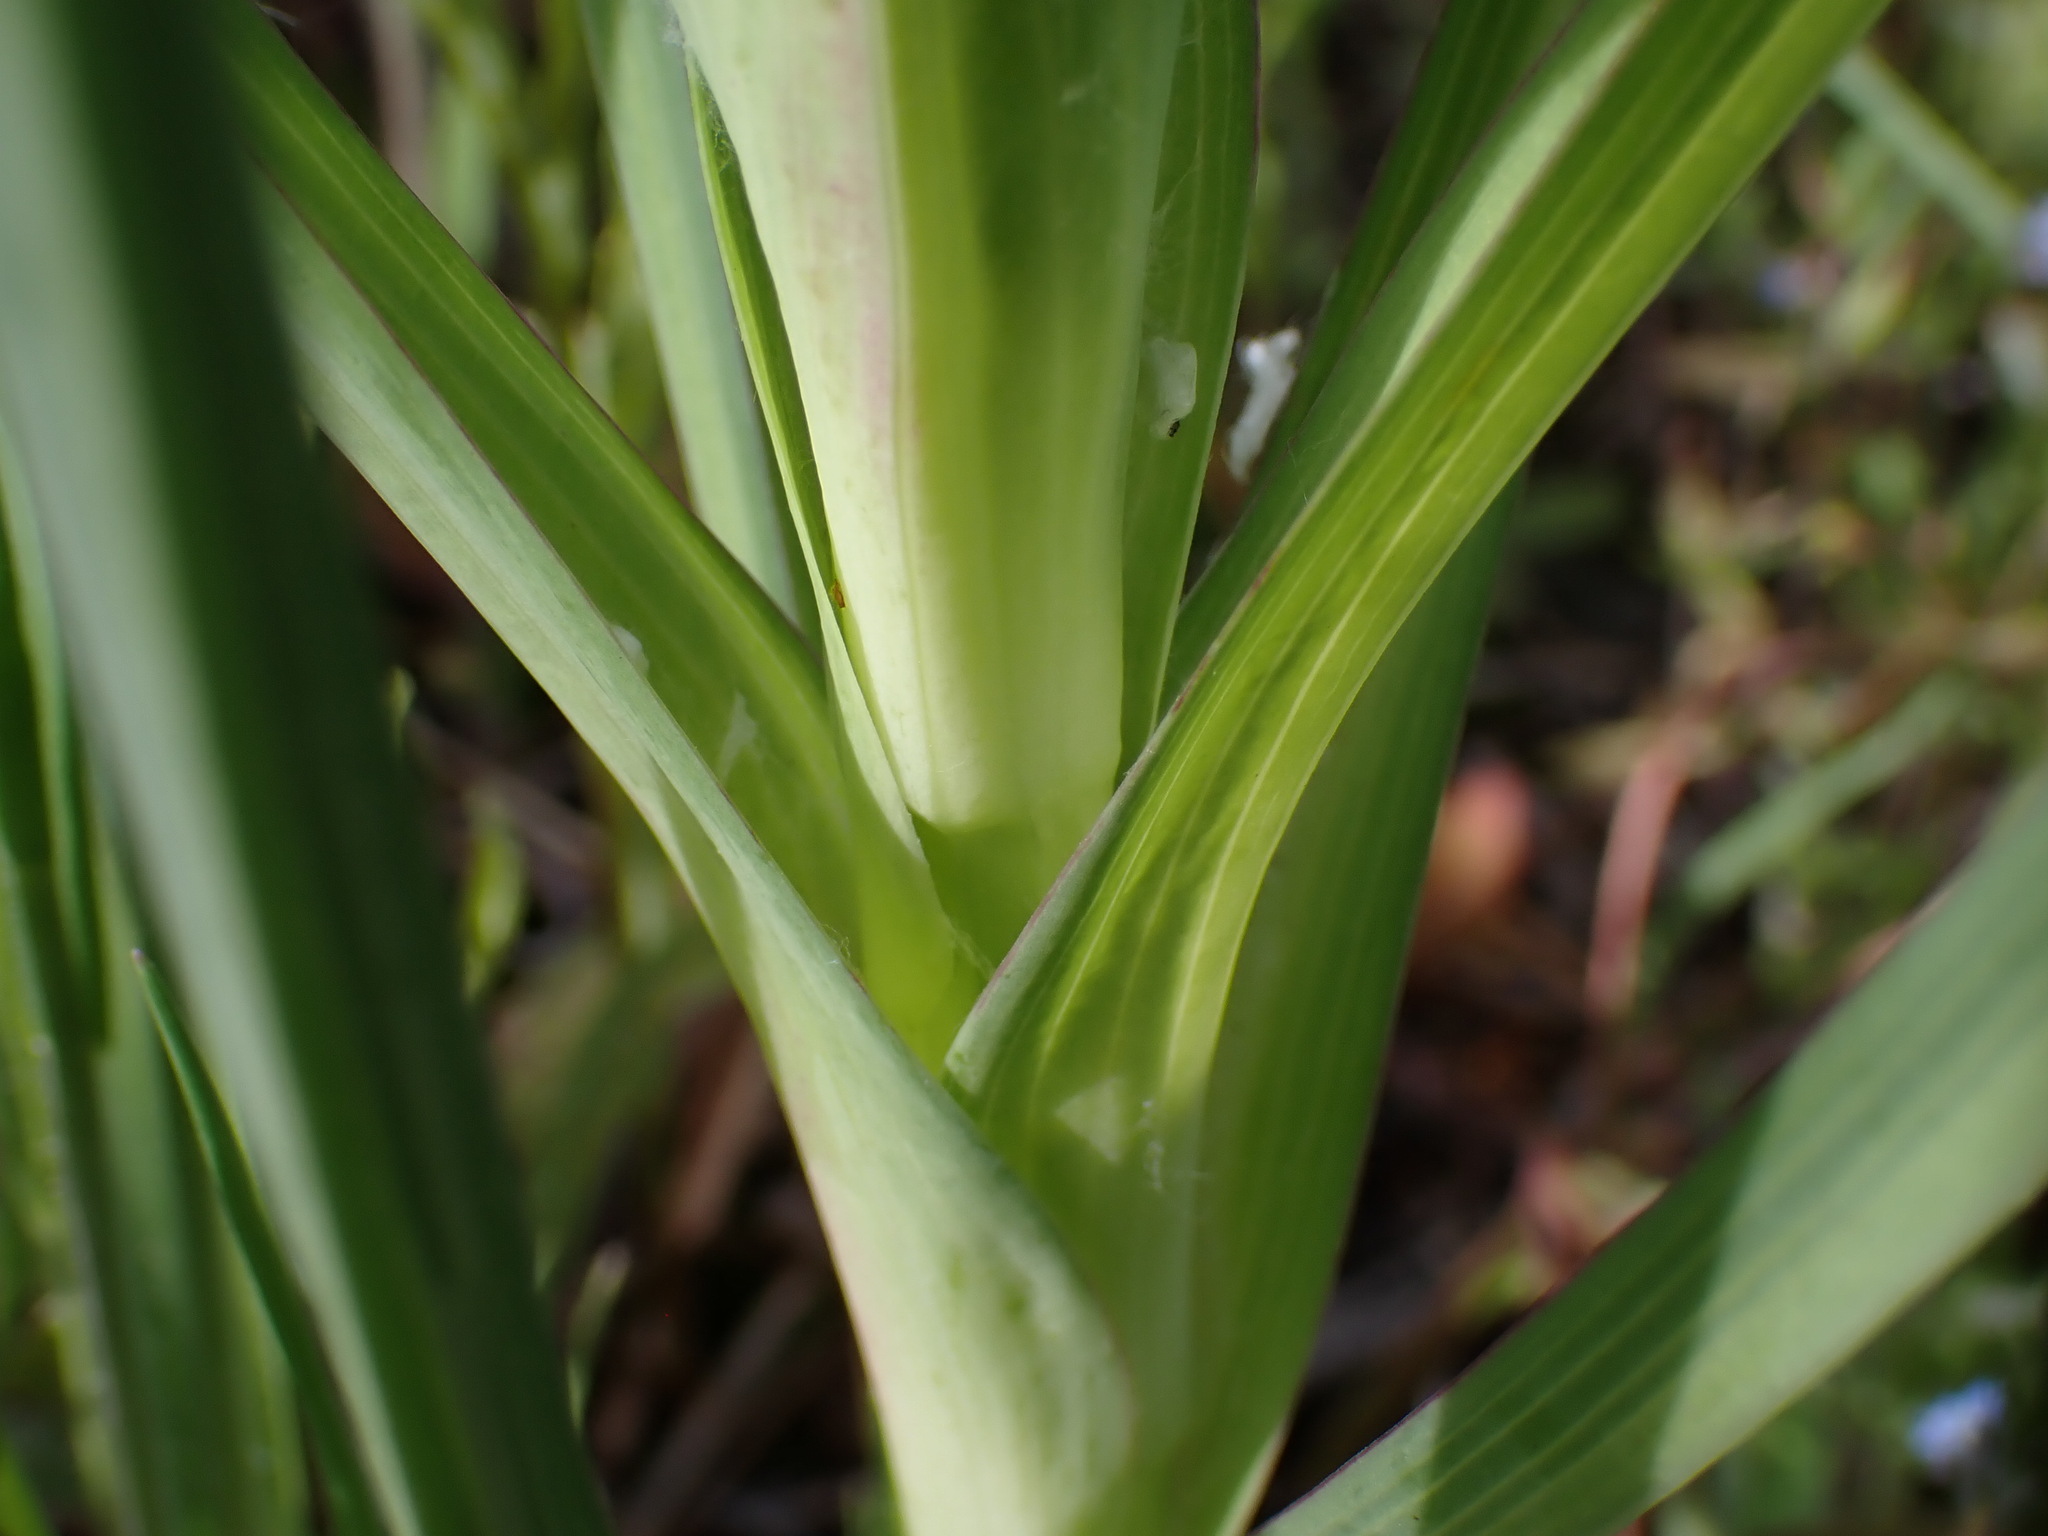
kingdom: Plantae
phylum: Tracheophyta
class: Magnoliopsida
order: Asterales
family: Asteraceae
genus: Tragopogon
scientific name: Tragopogon dubius
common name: Yellow salsify
